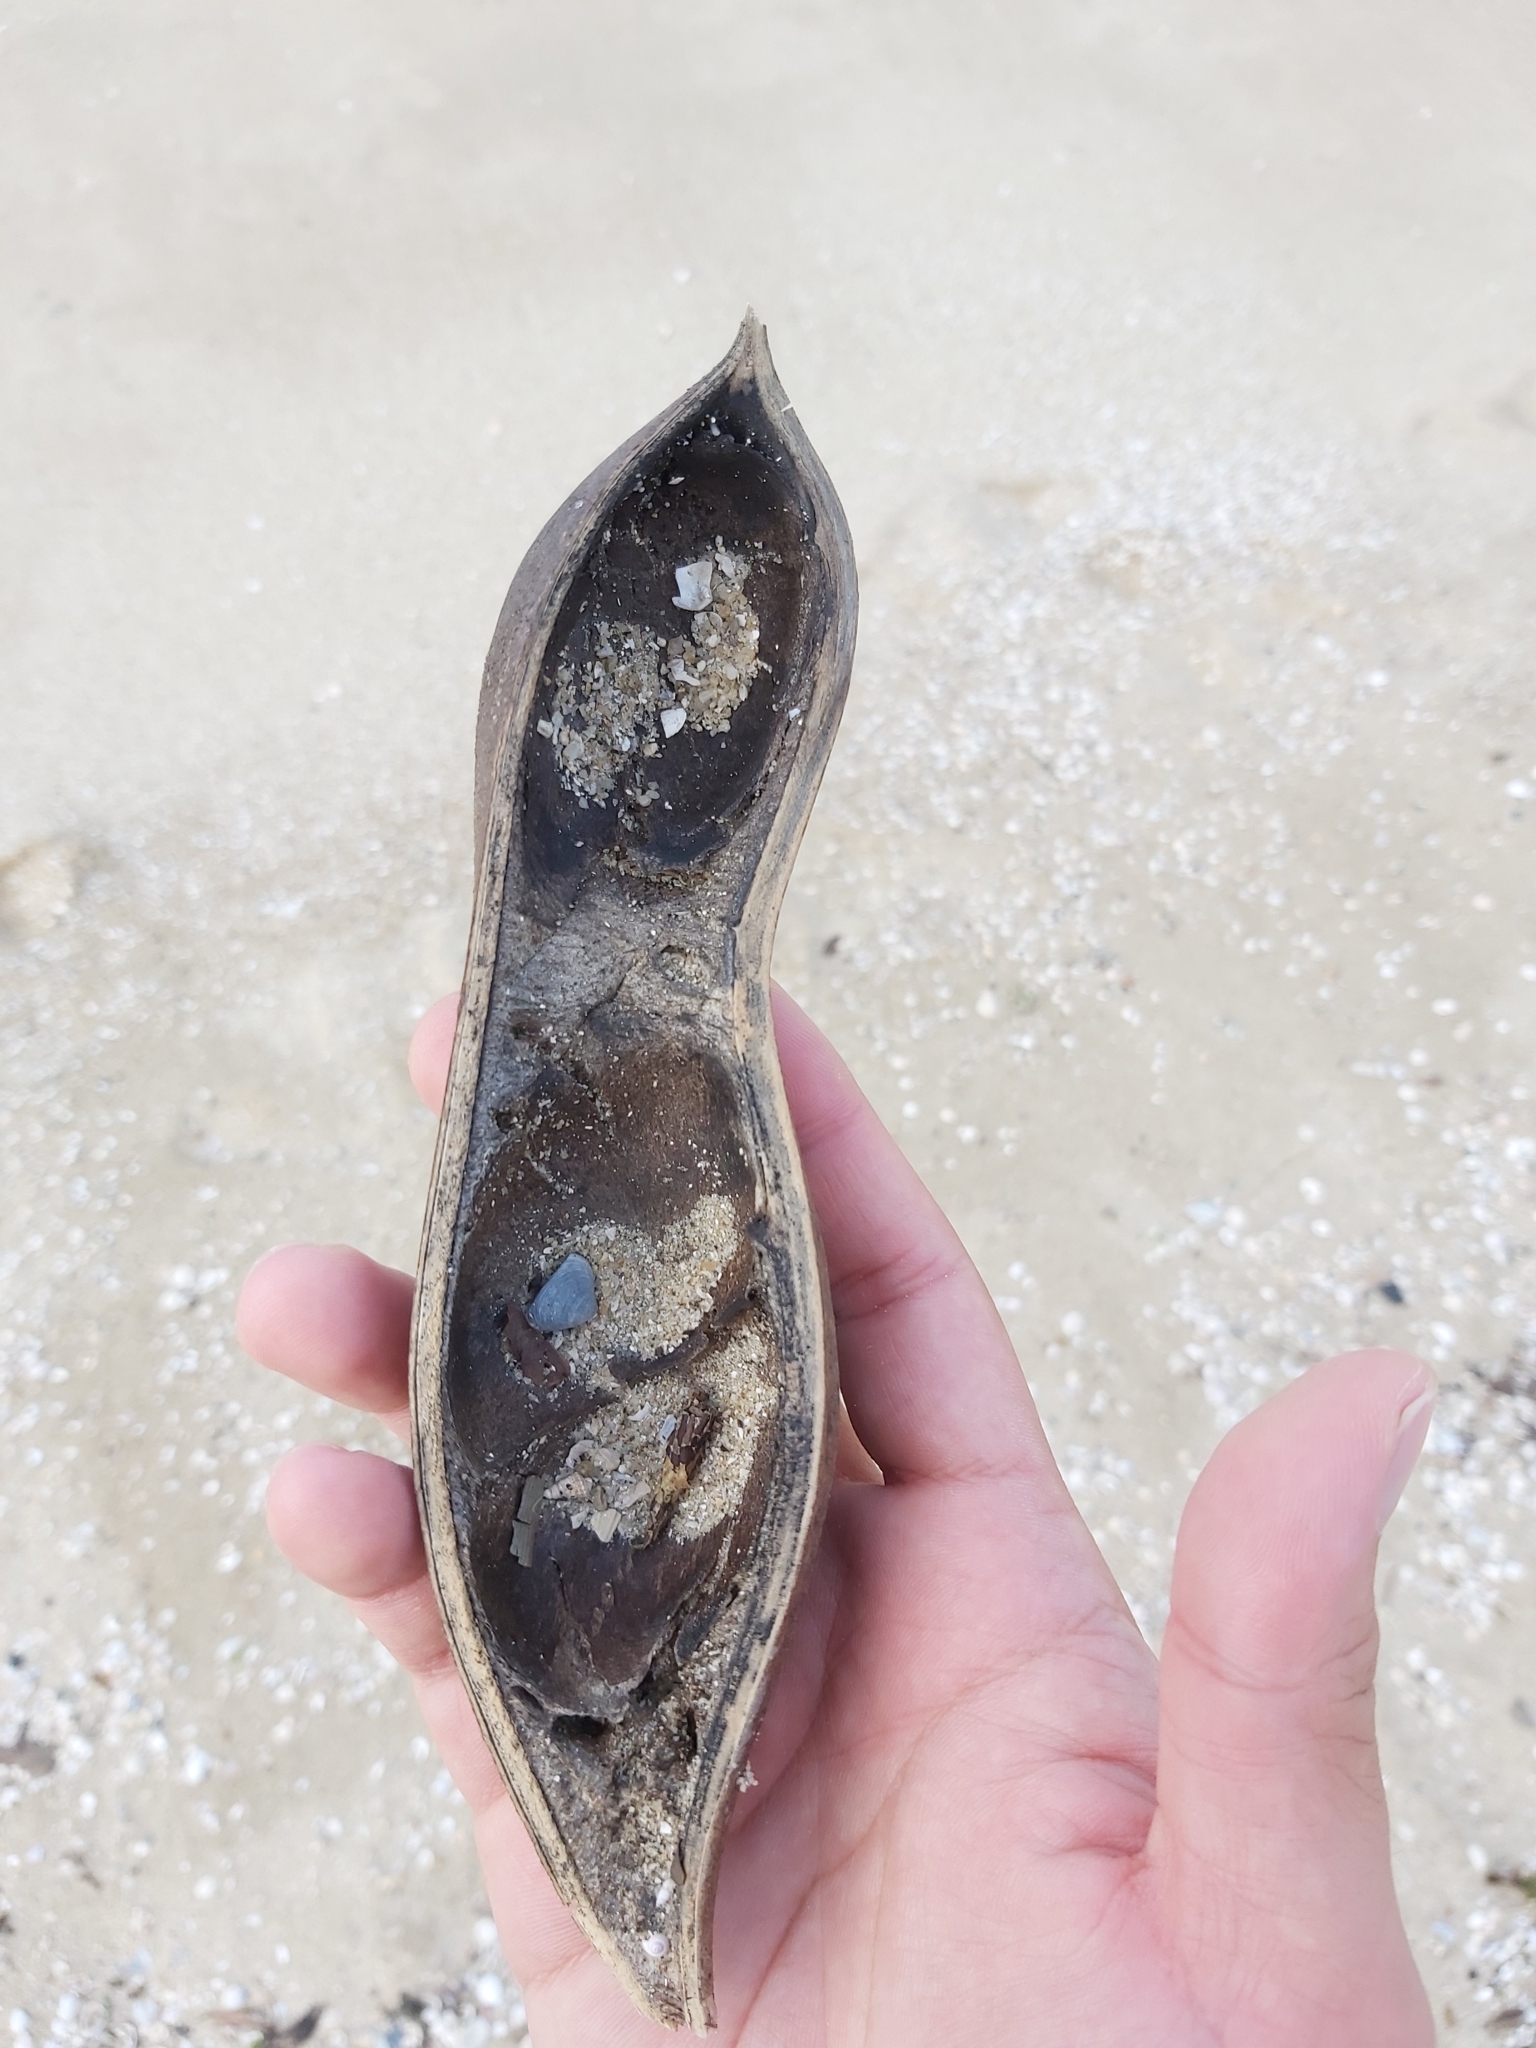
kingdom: Plantae
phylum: Tracheophyta
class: Magnoliopsida
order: Fabales
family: Fabaceae
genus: Castanospermum
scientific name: Castanospermum australe
